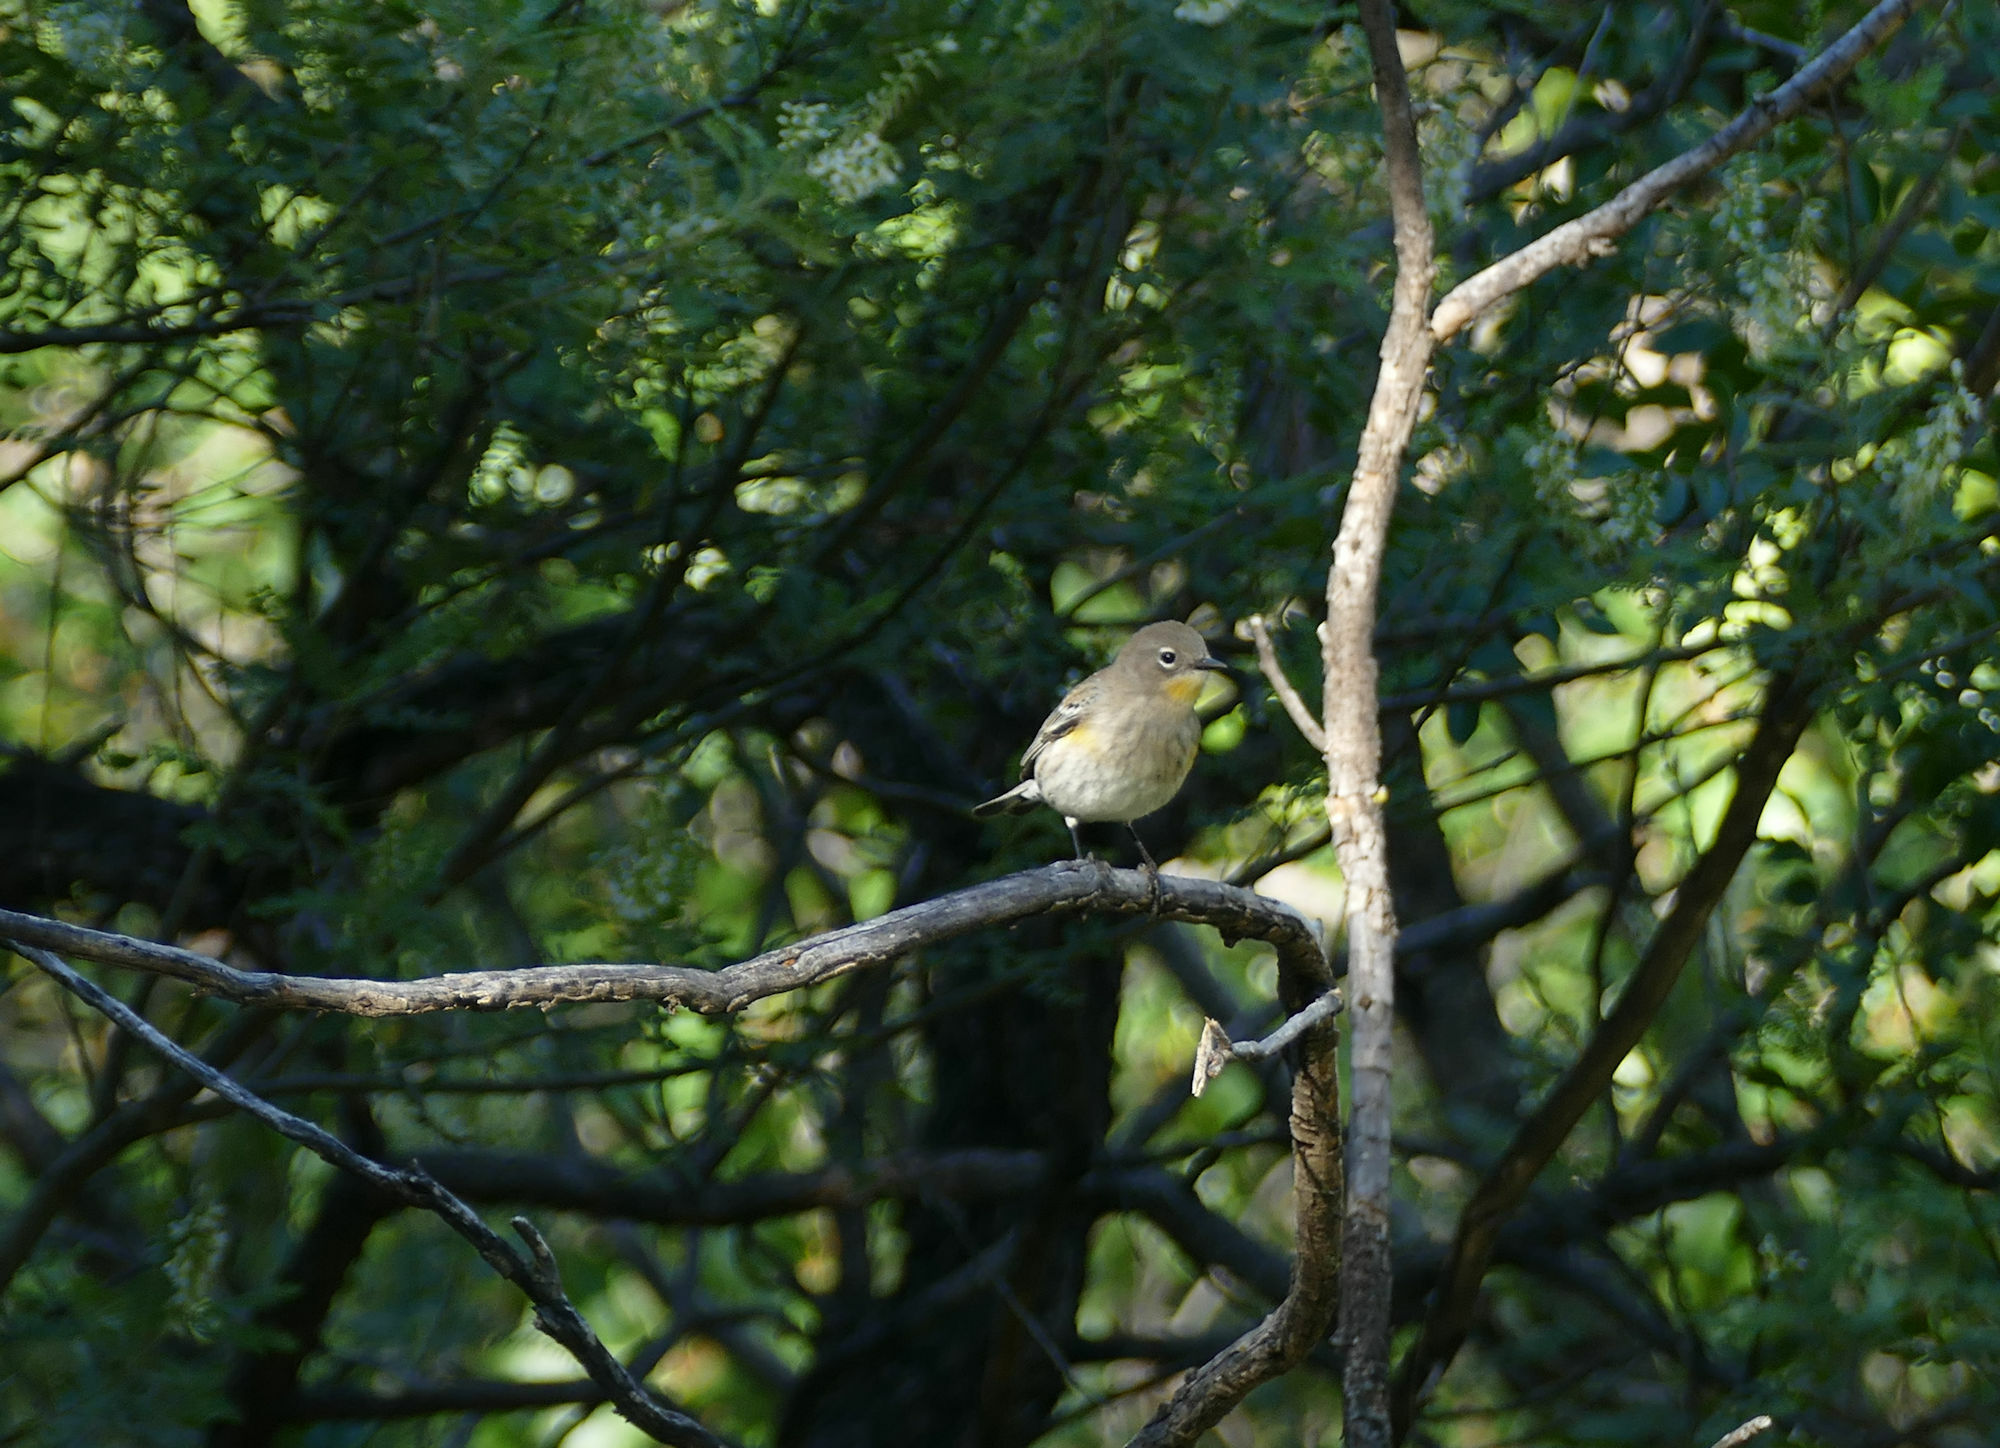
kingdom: Animalia
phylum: Chordata
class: Aves
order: Passeriformes
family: Parulidae
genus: Setophaga
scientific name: Setophaga coronata
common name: Myrtle warbler
